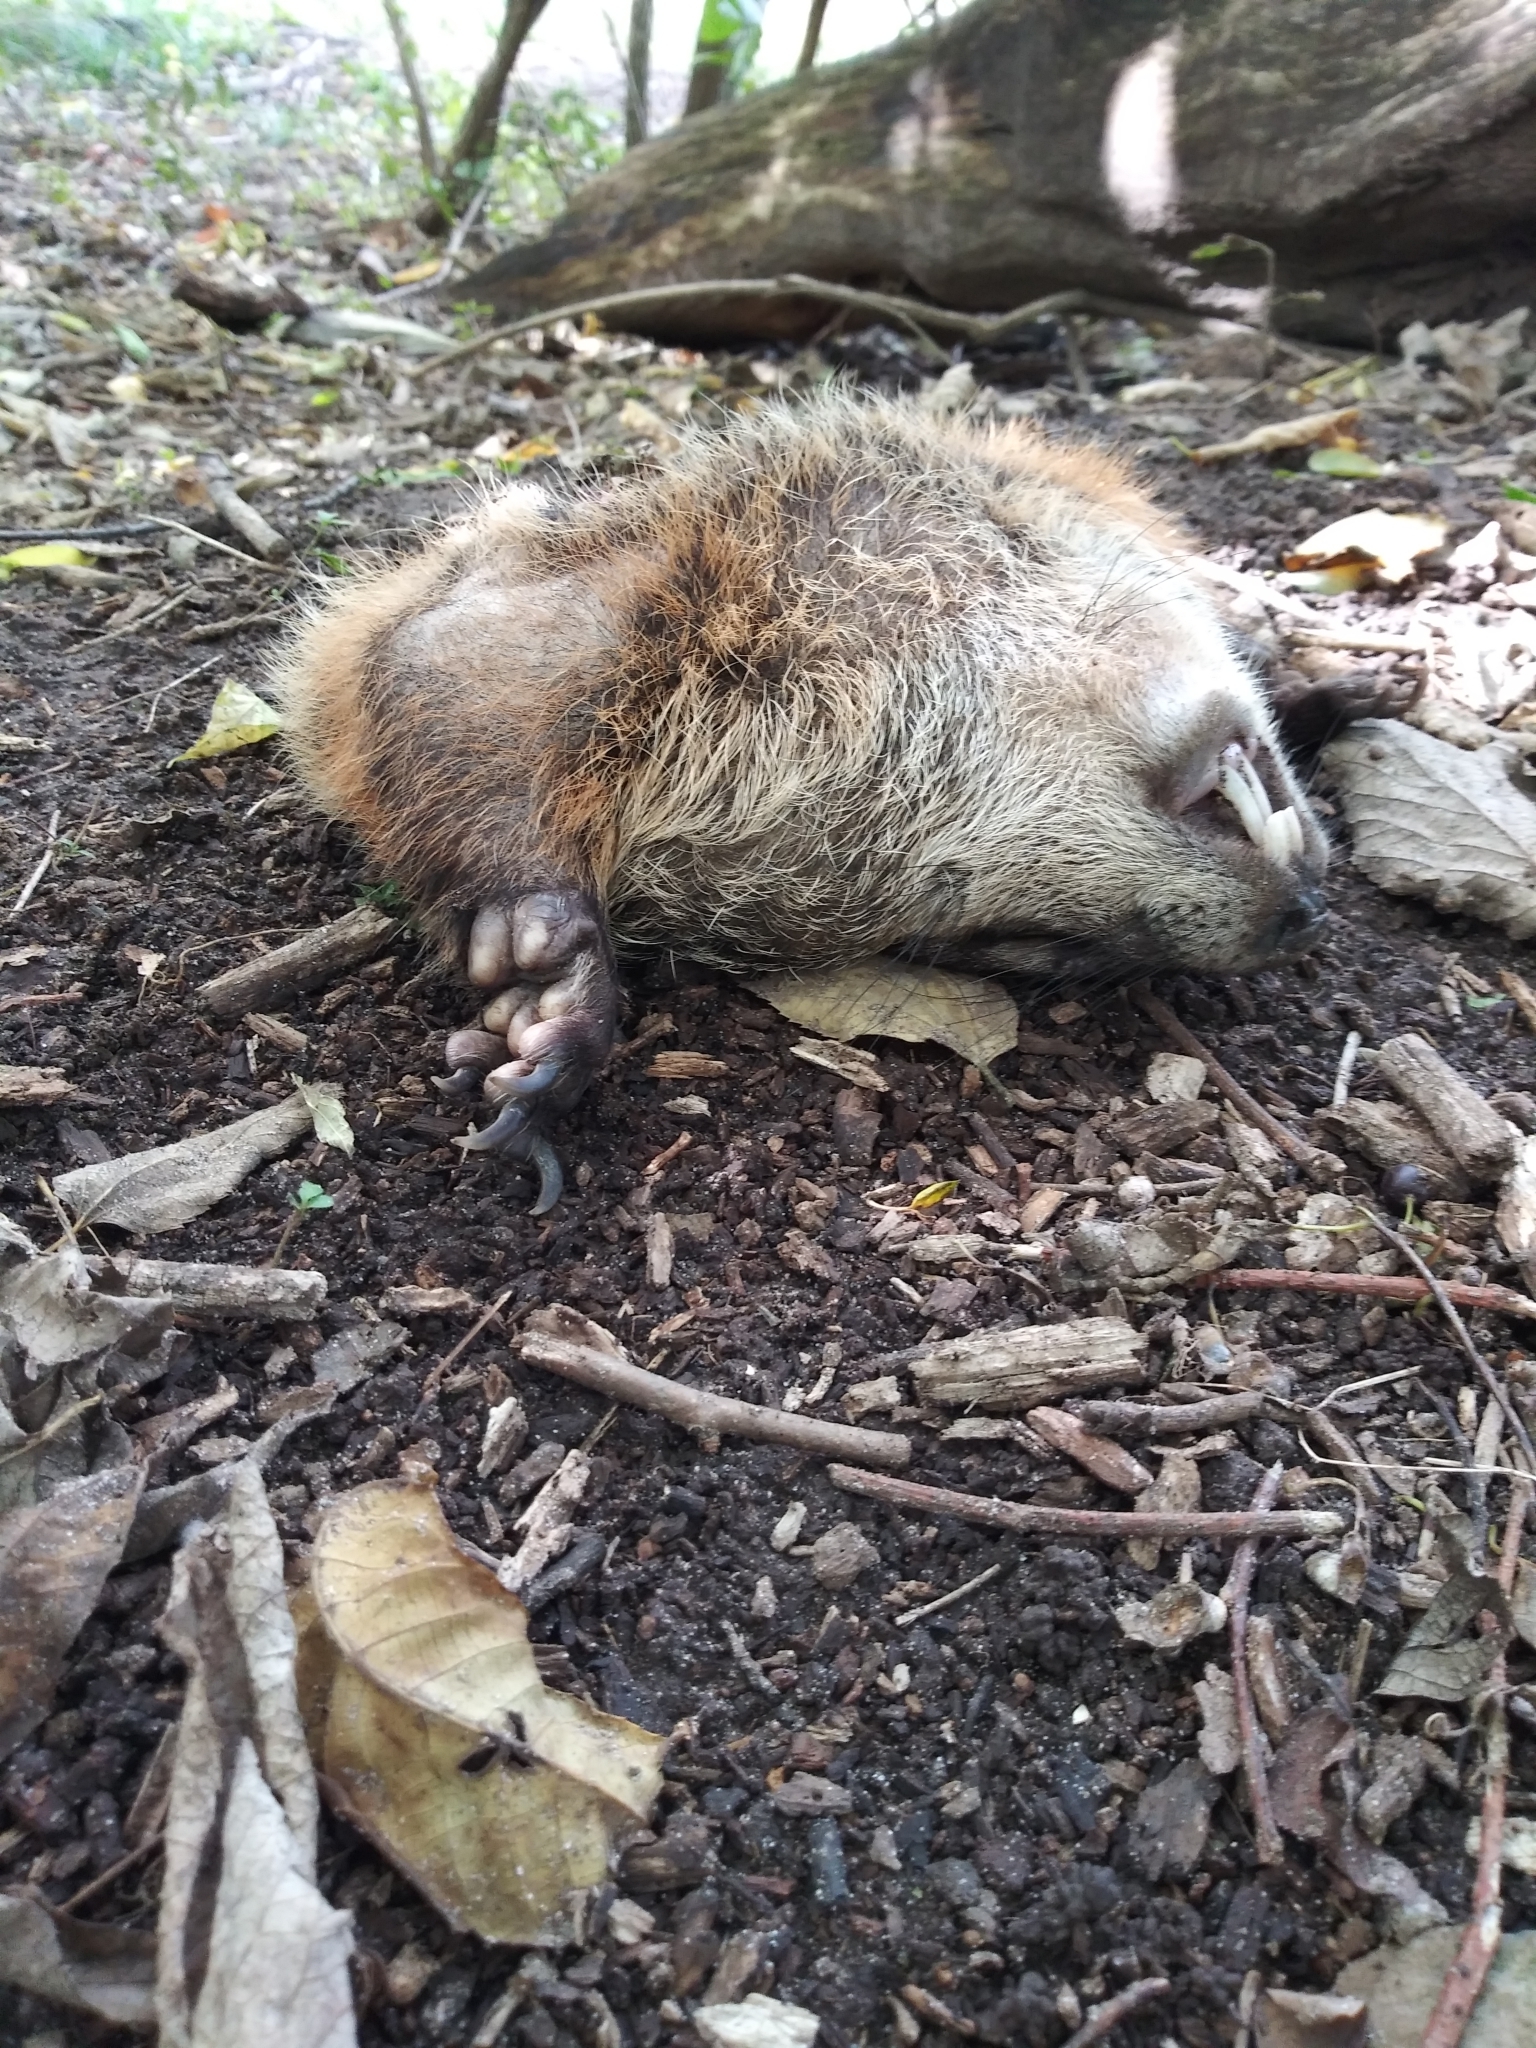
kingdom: Animalia
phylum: Chordata
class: Mammalia
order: Rodentia
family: Sciuridae
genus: Marmota
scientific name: Marmota monax
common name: Groundhog
